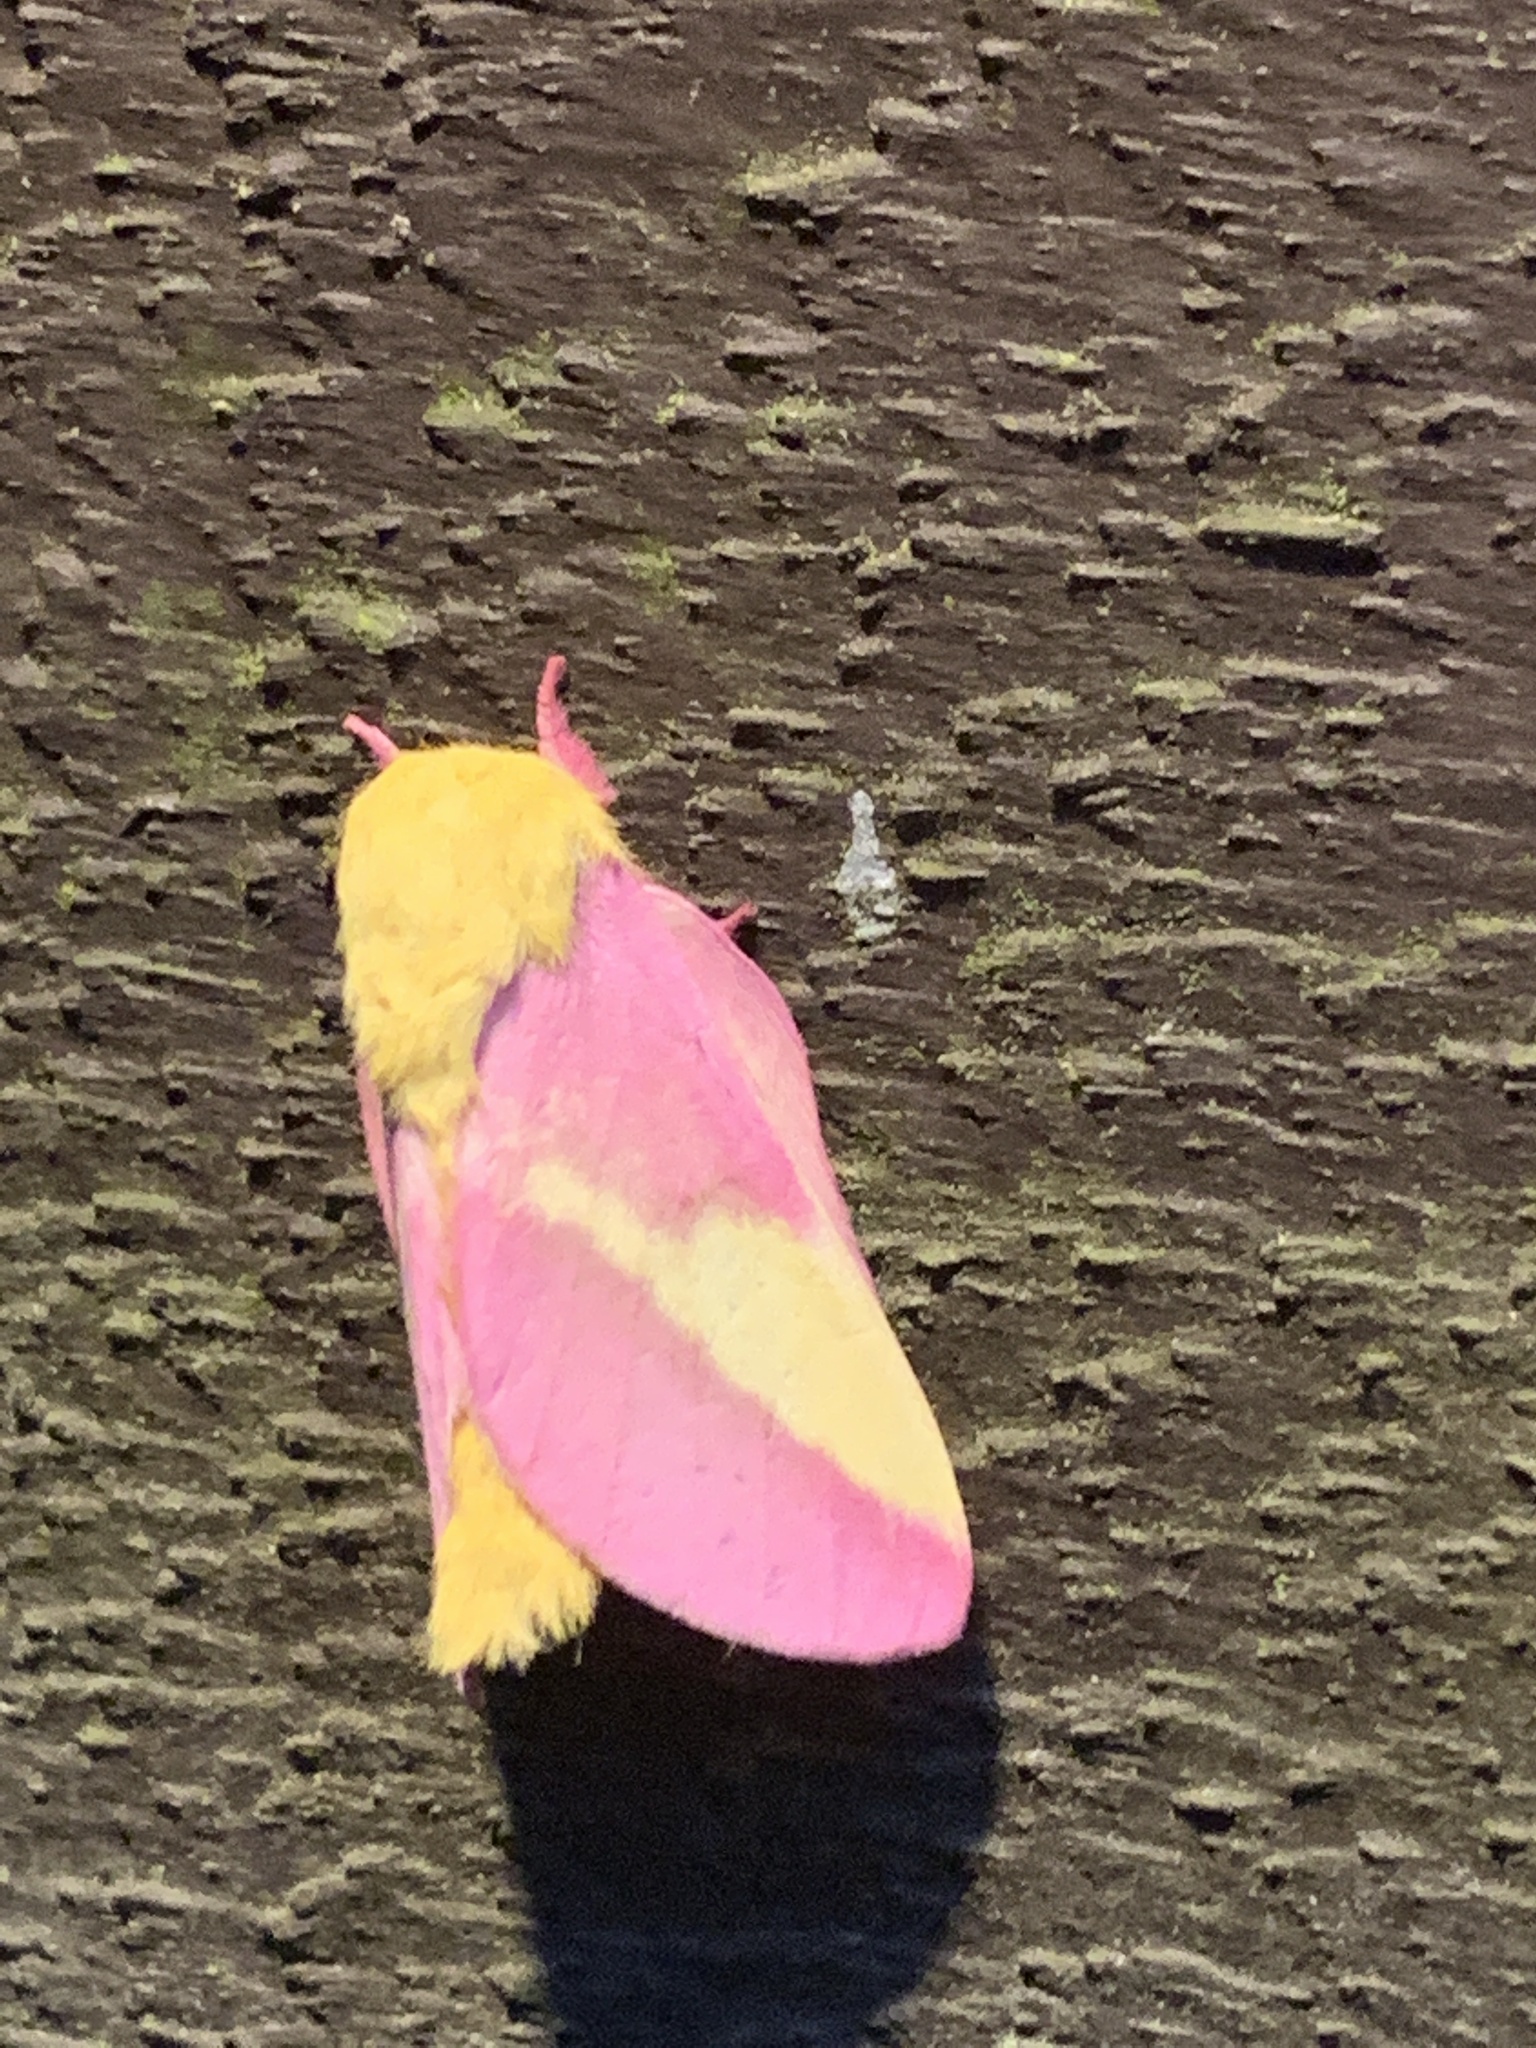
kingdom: Animalia
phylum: Arthropoda
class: Insecta
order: Lepidoptera
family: Saturniidae
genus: Dryocampa
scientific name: Dryocampa rubicunda
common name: Rosy maple moth
